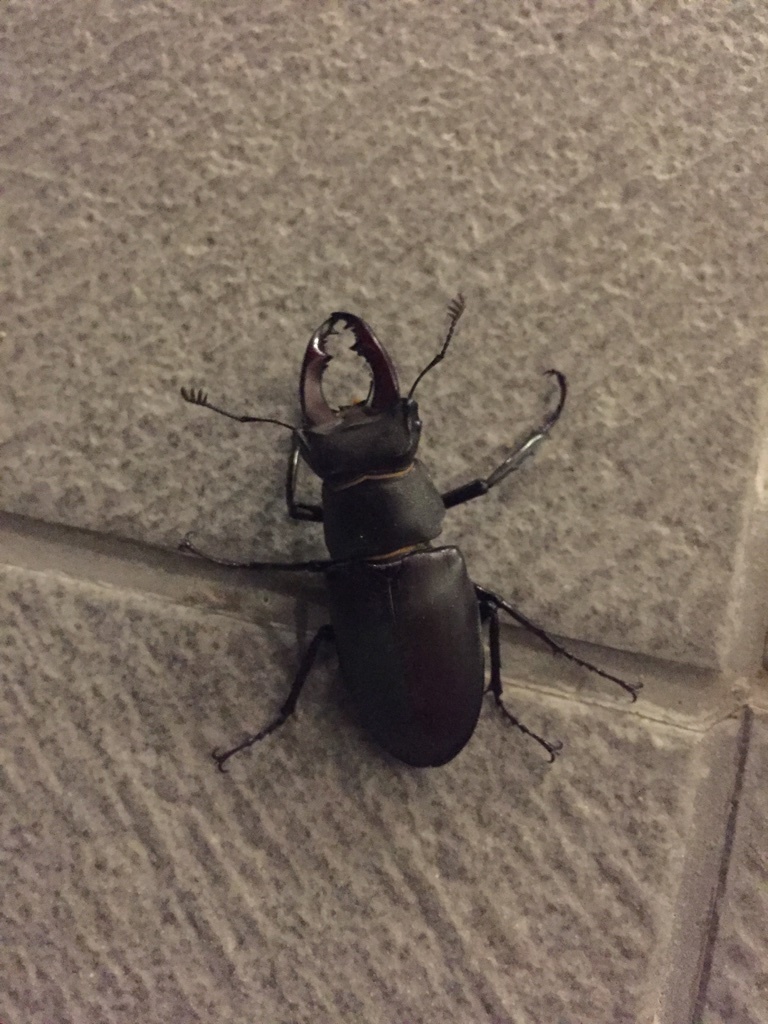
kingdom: Animalia
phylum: Arthropoda
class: Insecta
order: Coleoptera
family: Lucanidae
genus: Lucanus
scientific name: Lucanus cervus
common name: Stag beetle
